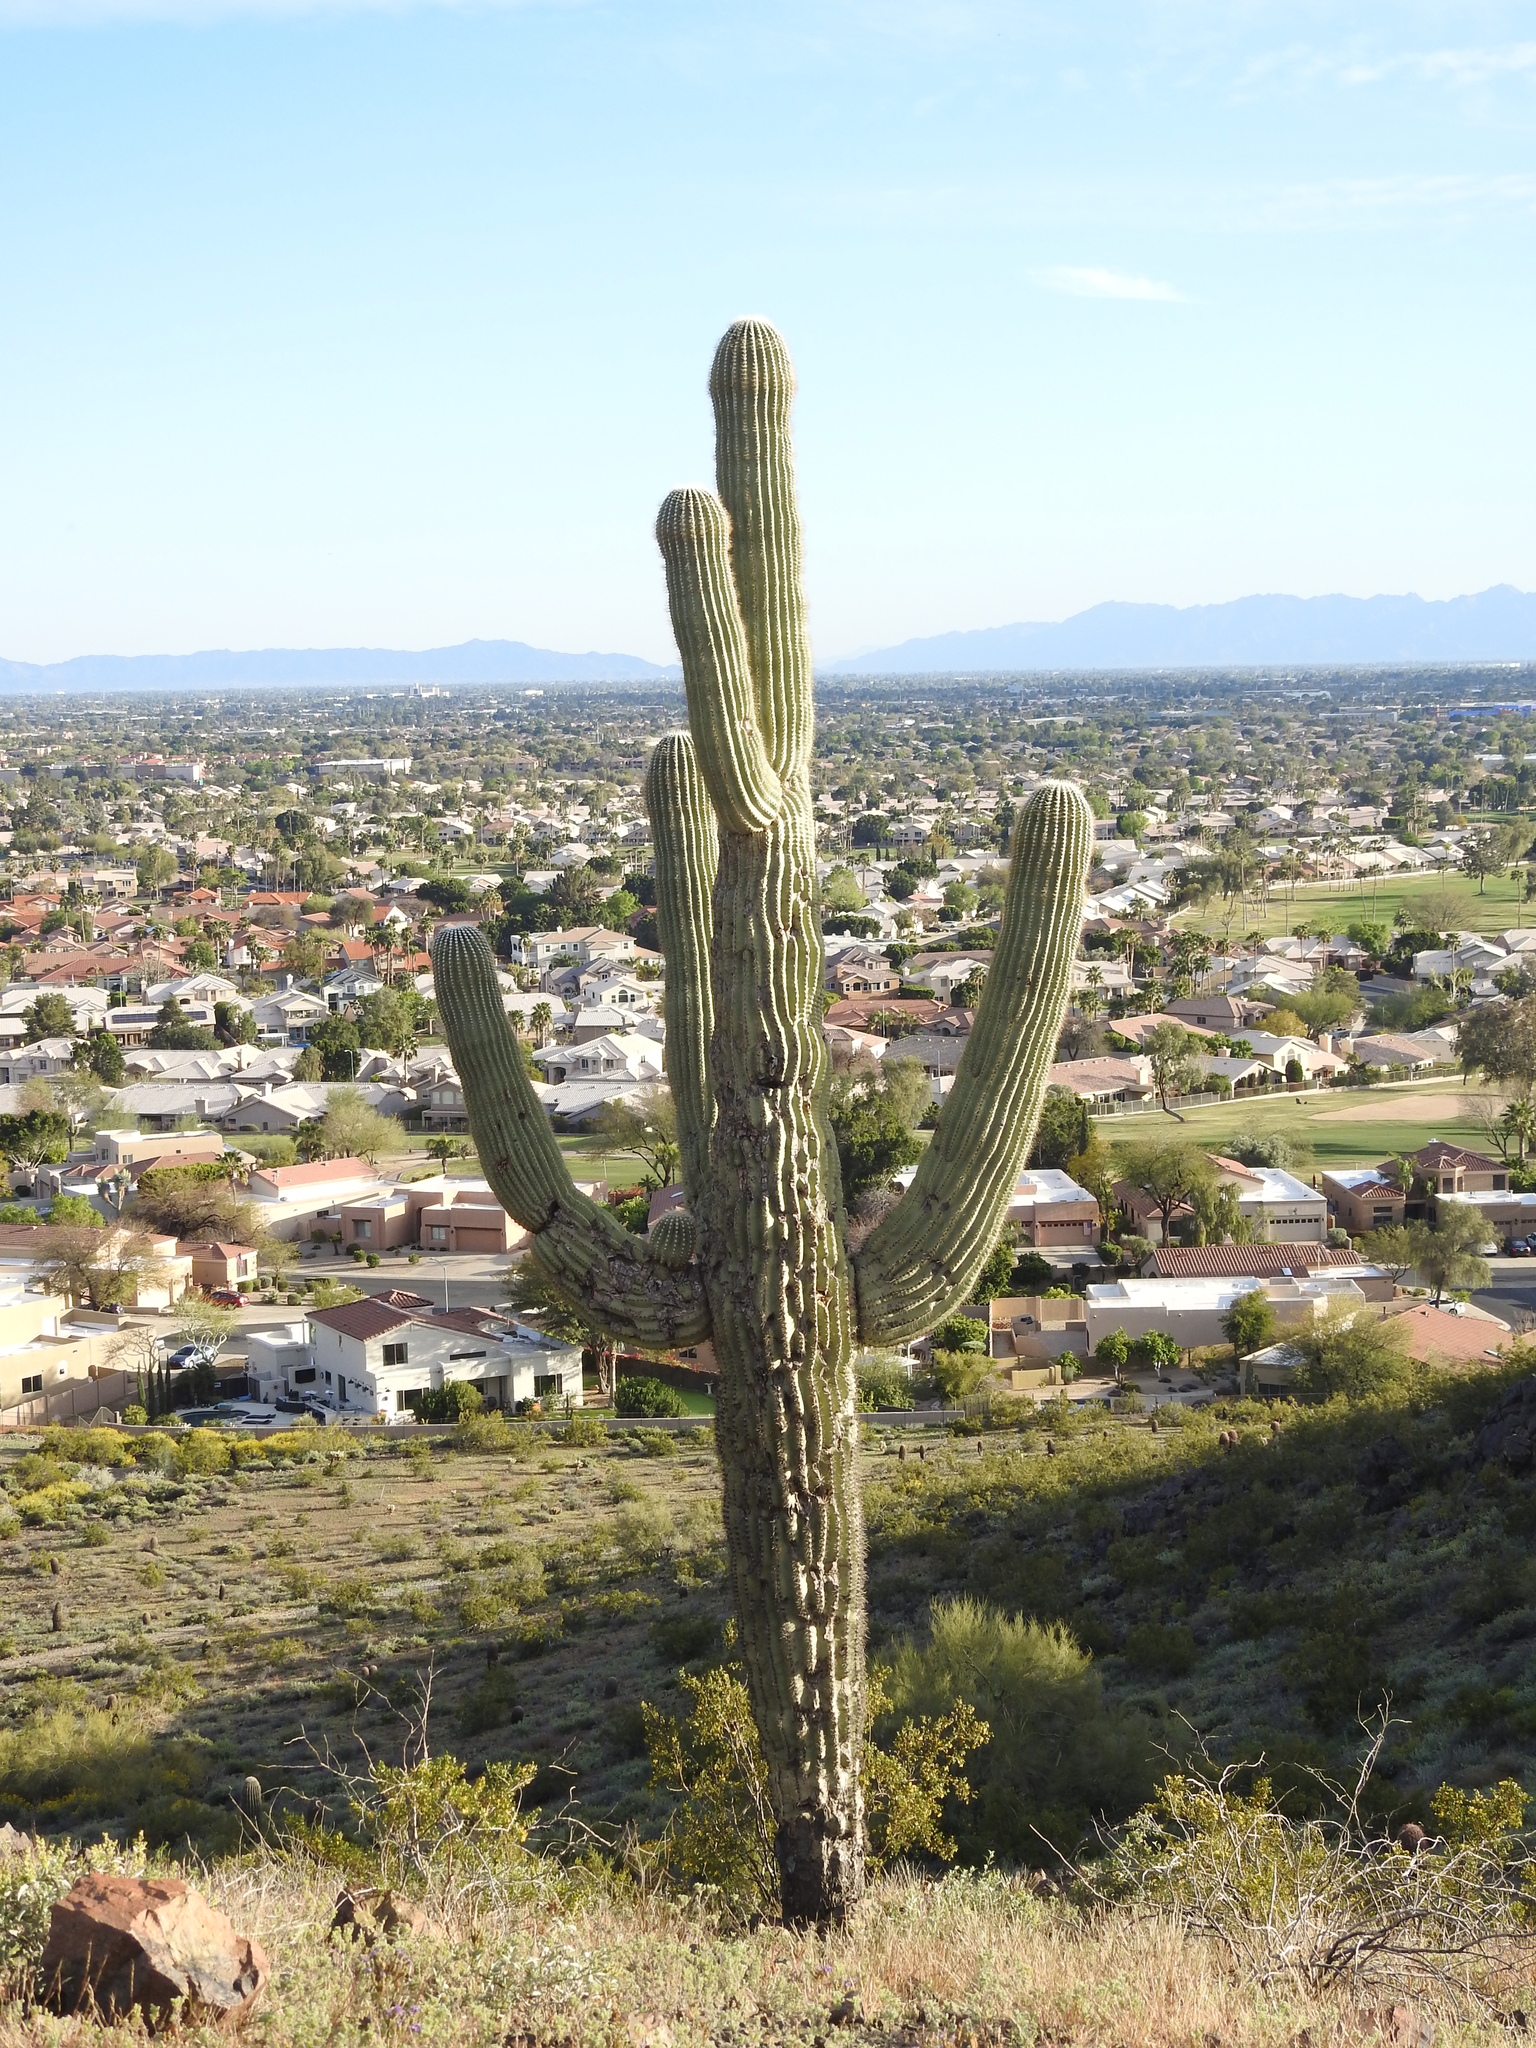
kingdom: Plantae
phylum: Tracheophyta
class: Magnoliopsida
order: Caryophyllales
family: Cactaceae
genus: Carnegiea
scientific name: Carnegiea gigantea
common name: Saguaro
